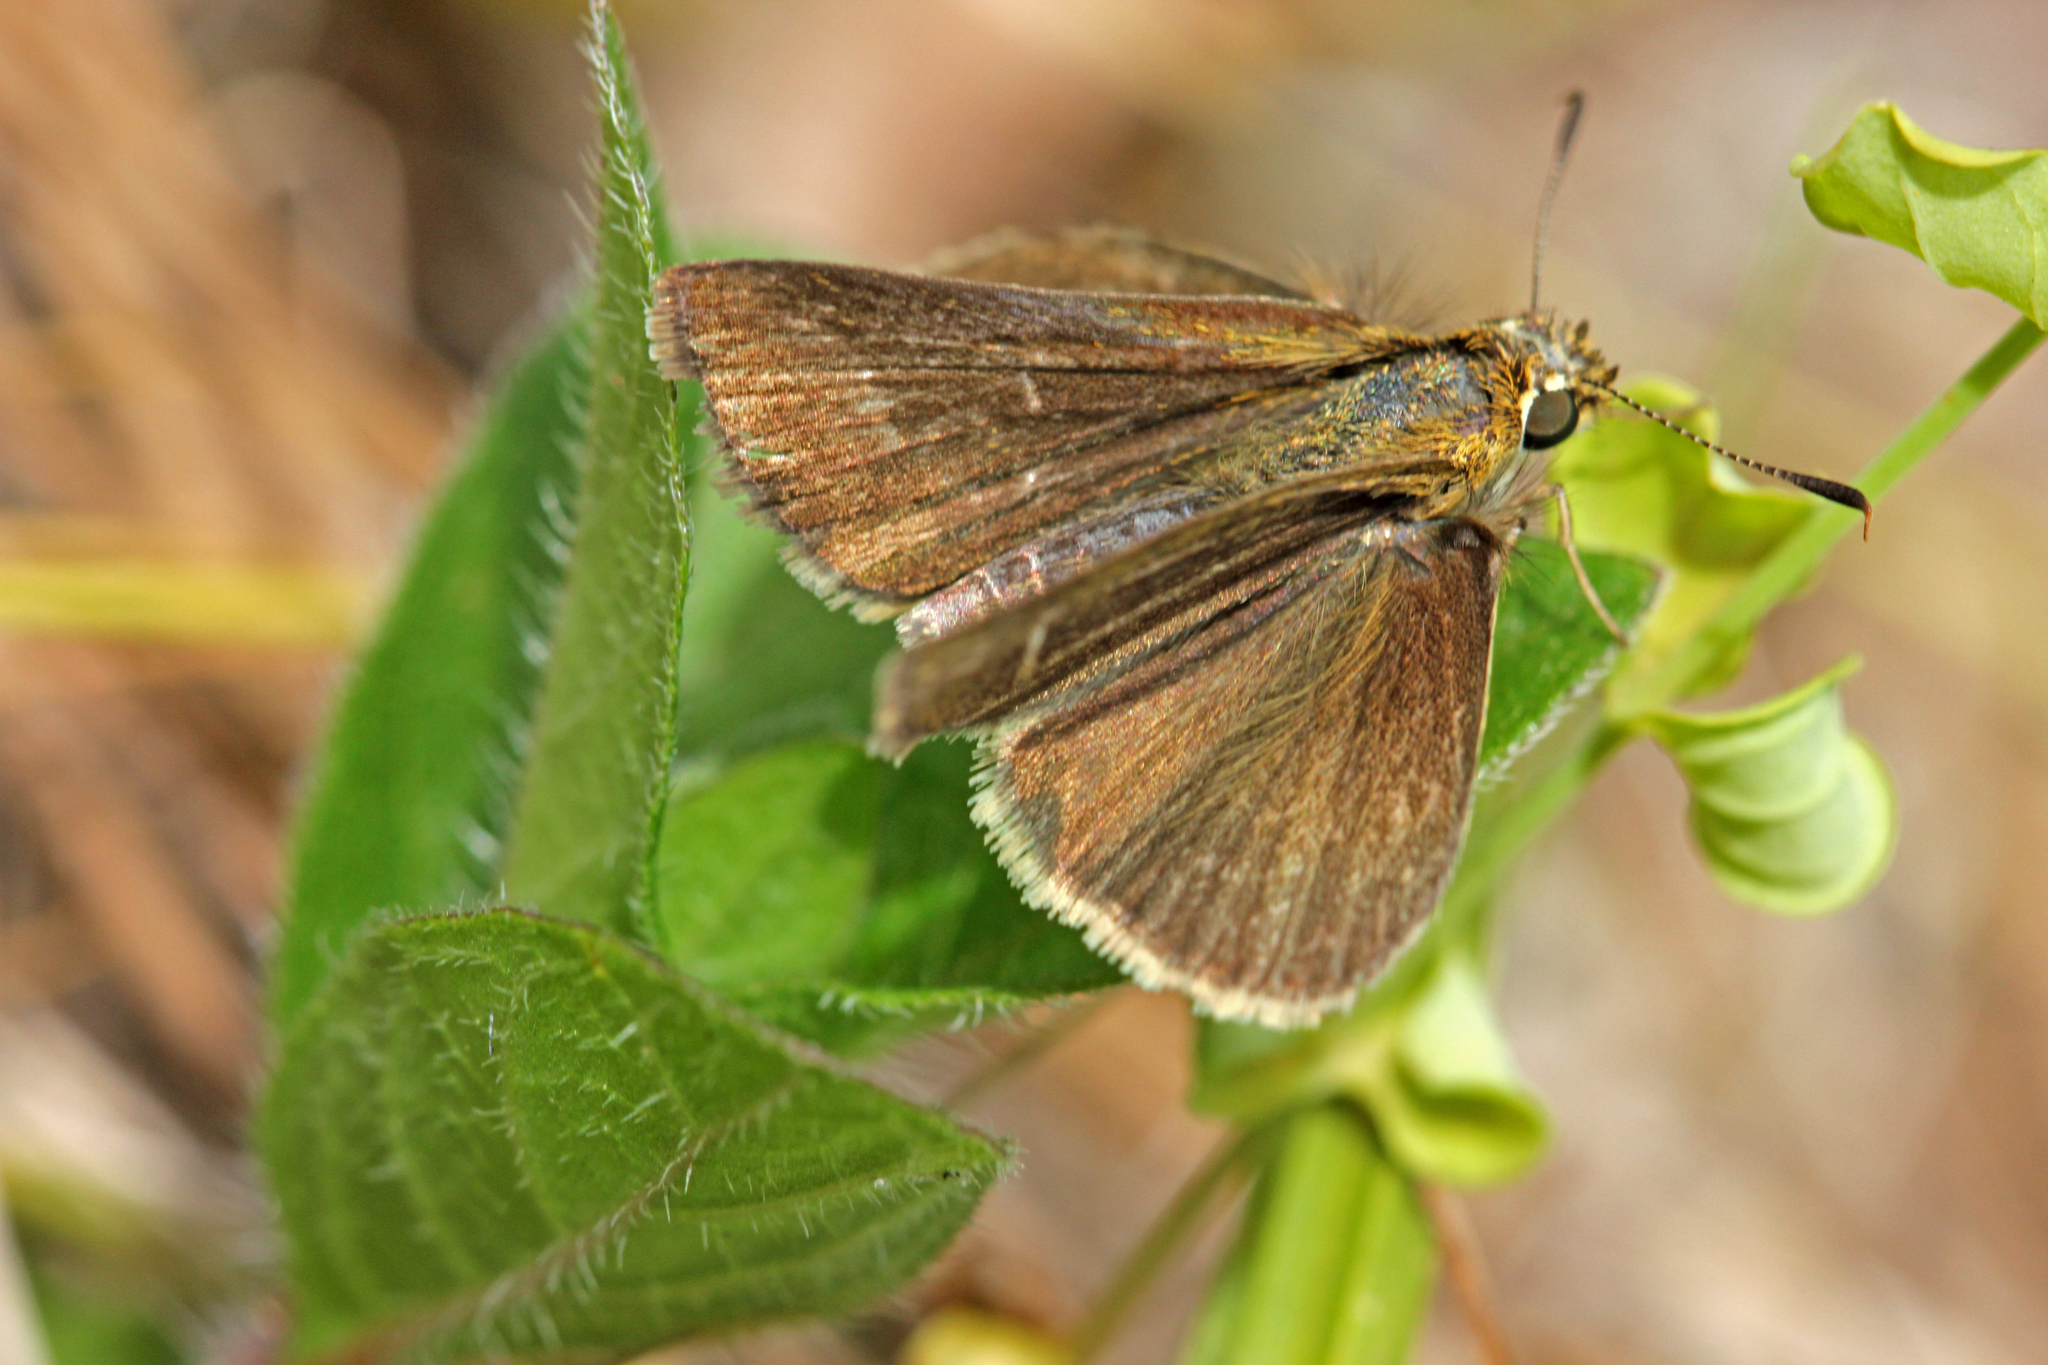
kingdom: Animalia
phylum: Arthropoda
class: Insecta
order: Lepidoptera
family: Hesperiidae
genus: Nastra
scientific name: Nastra lherminier
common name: Swarthy skipper
